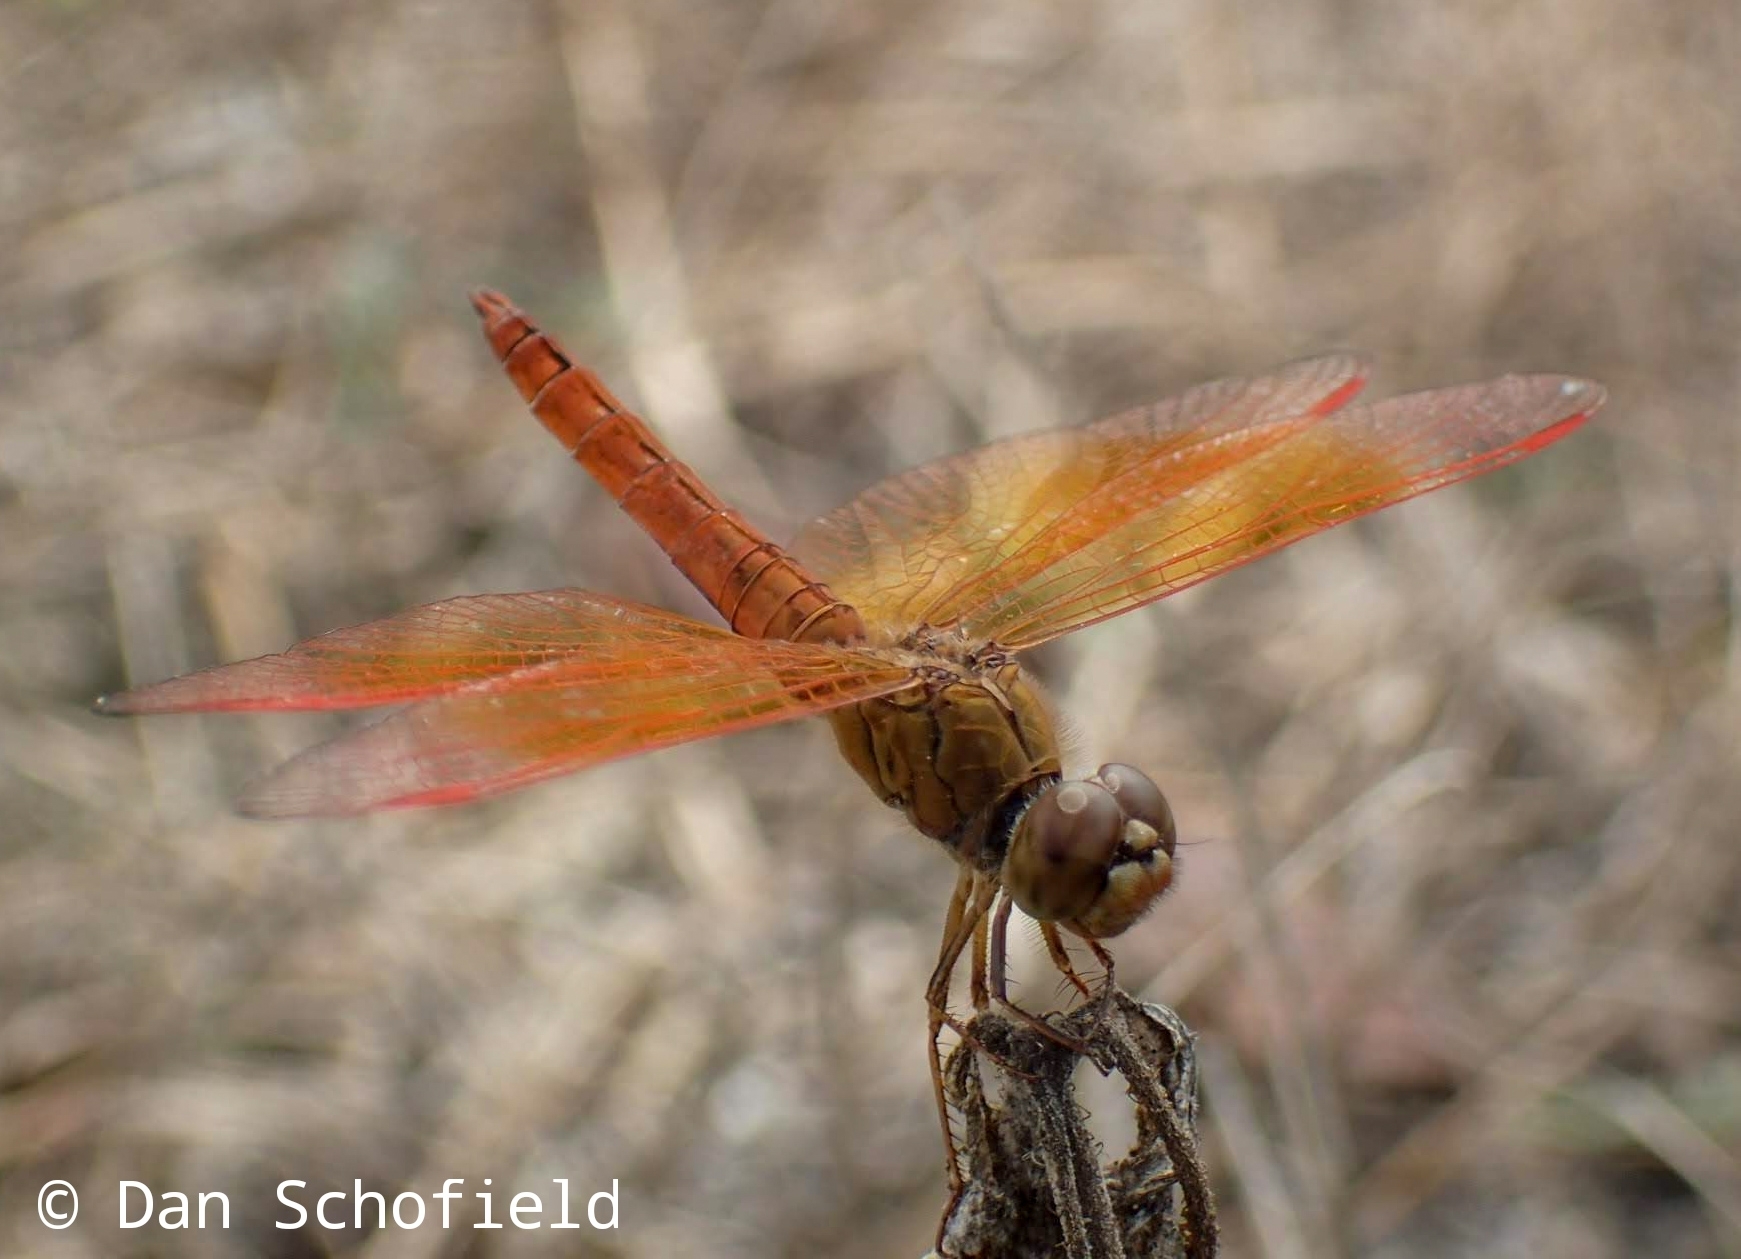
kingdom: Animalia
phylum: Arthropoda
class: Insecta
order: Odonata
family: Libellulidae
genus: Brachythemis
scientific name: Brachythemis contaminata
